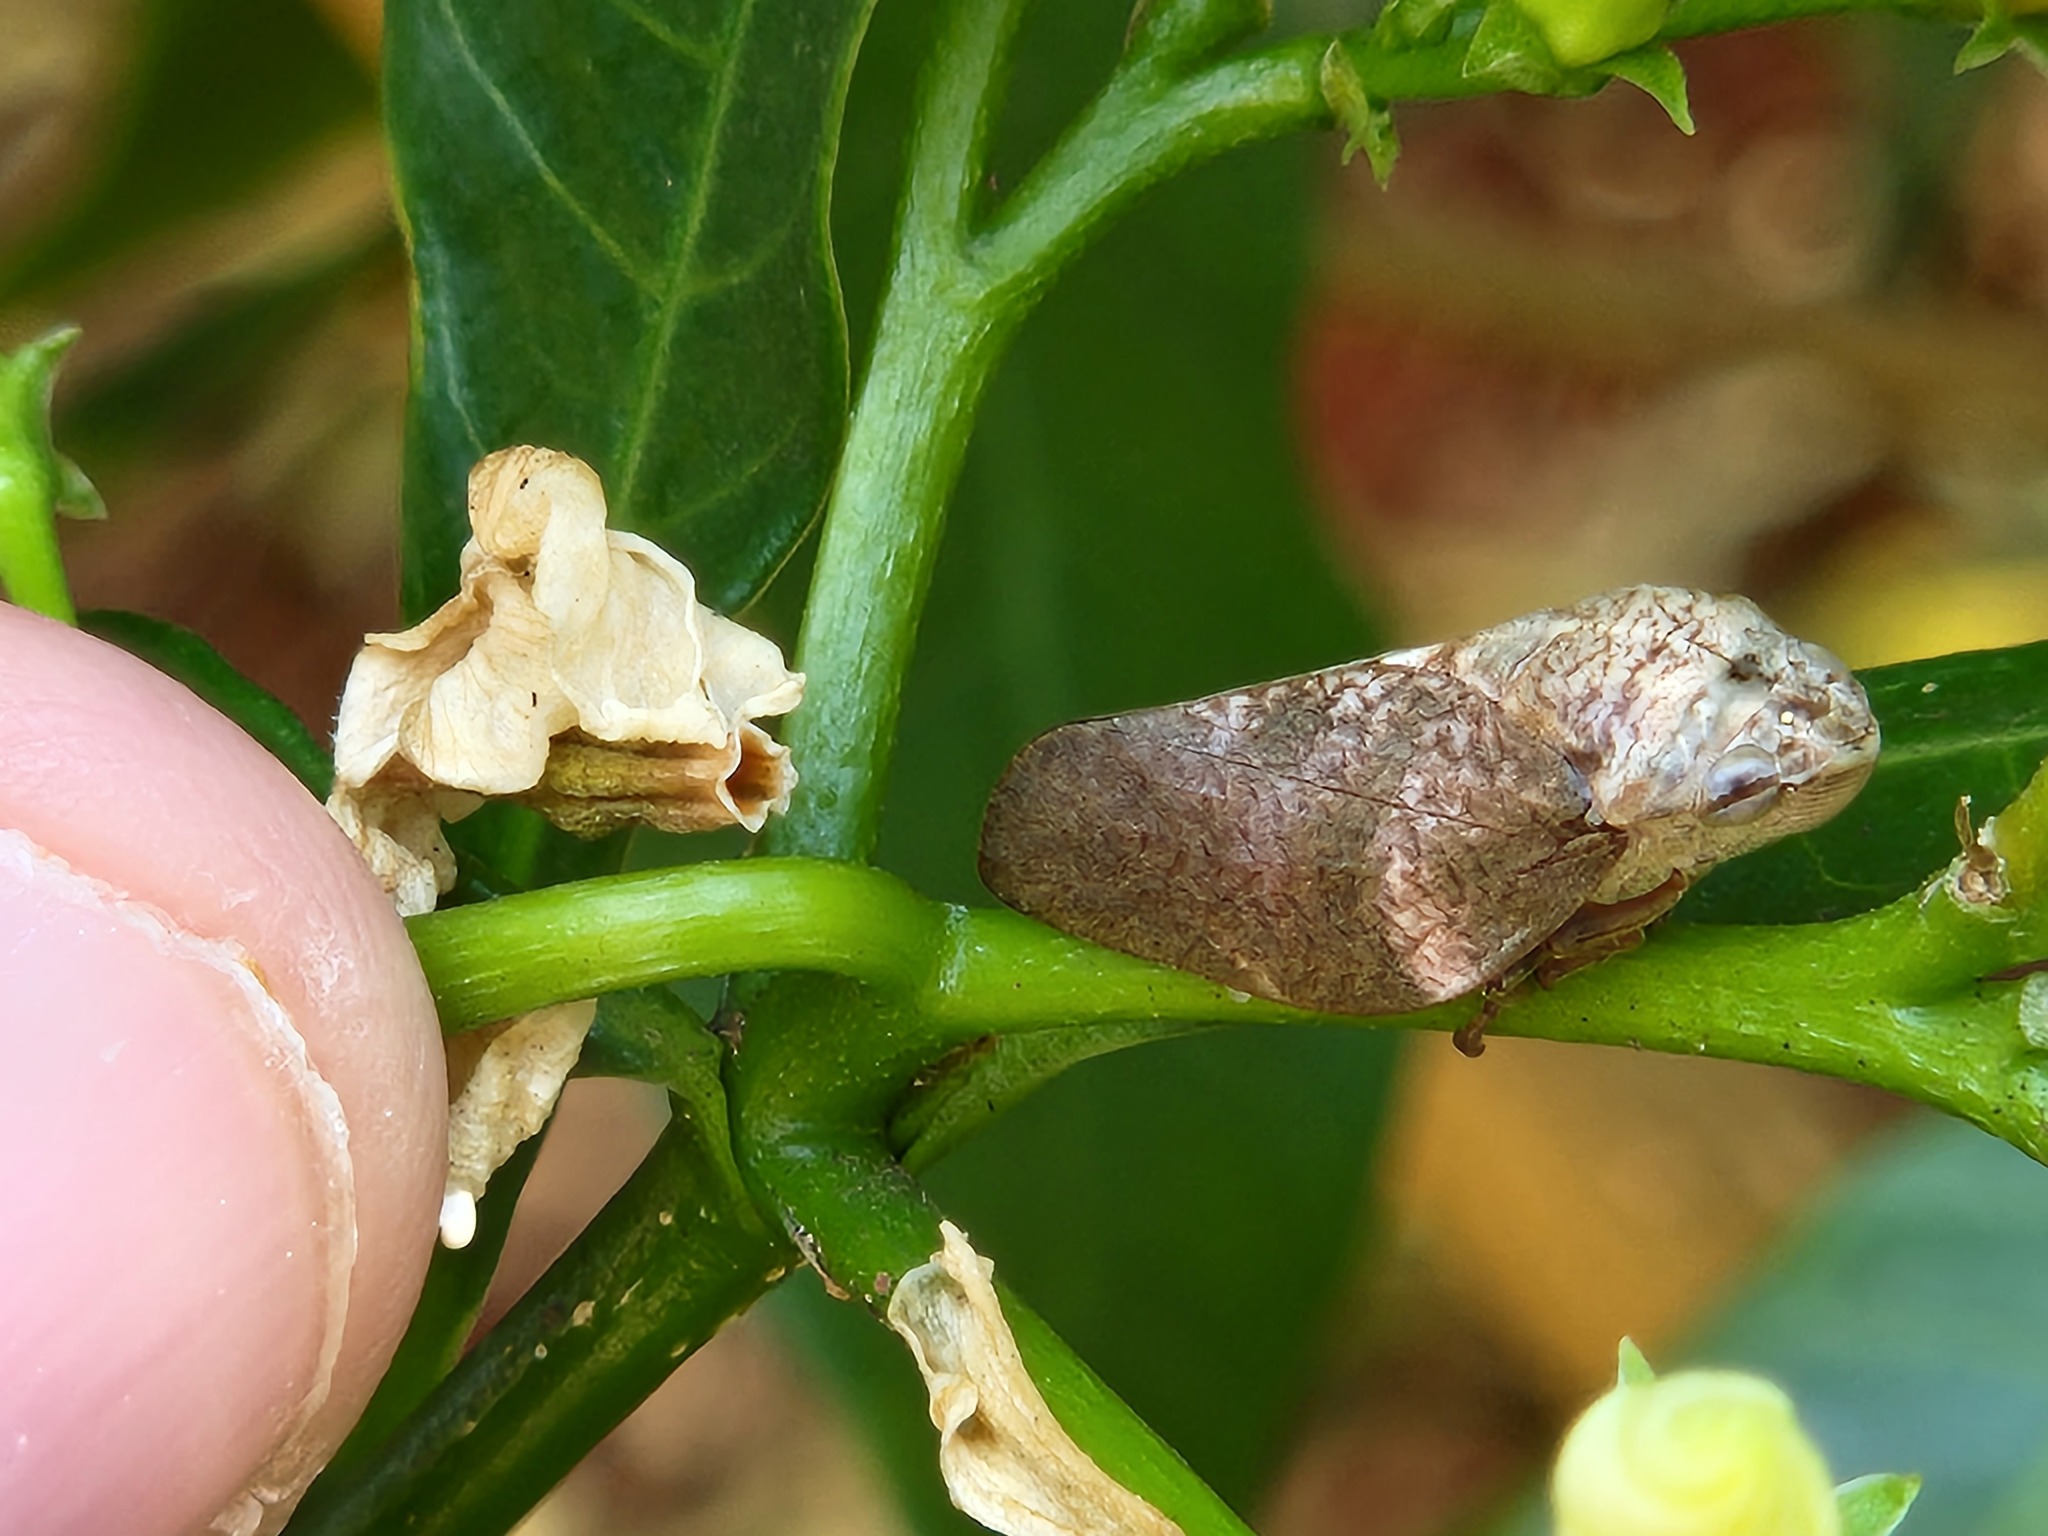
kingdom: Animalia
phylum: Arthropoda
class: Insecta
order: Hemiptera
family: Aphrophoridae
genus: Cephisus
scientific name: Cephisus siccifolius
